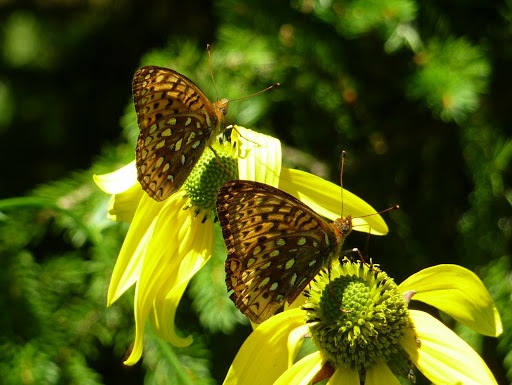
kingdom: Animalia
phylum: Arthropoda
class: Insecta
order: Lepidoptera
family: Nymphalidae
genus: Speyeria
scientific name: Speyeria atlantis
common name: Atlantis fritillary
